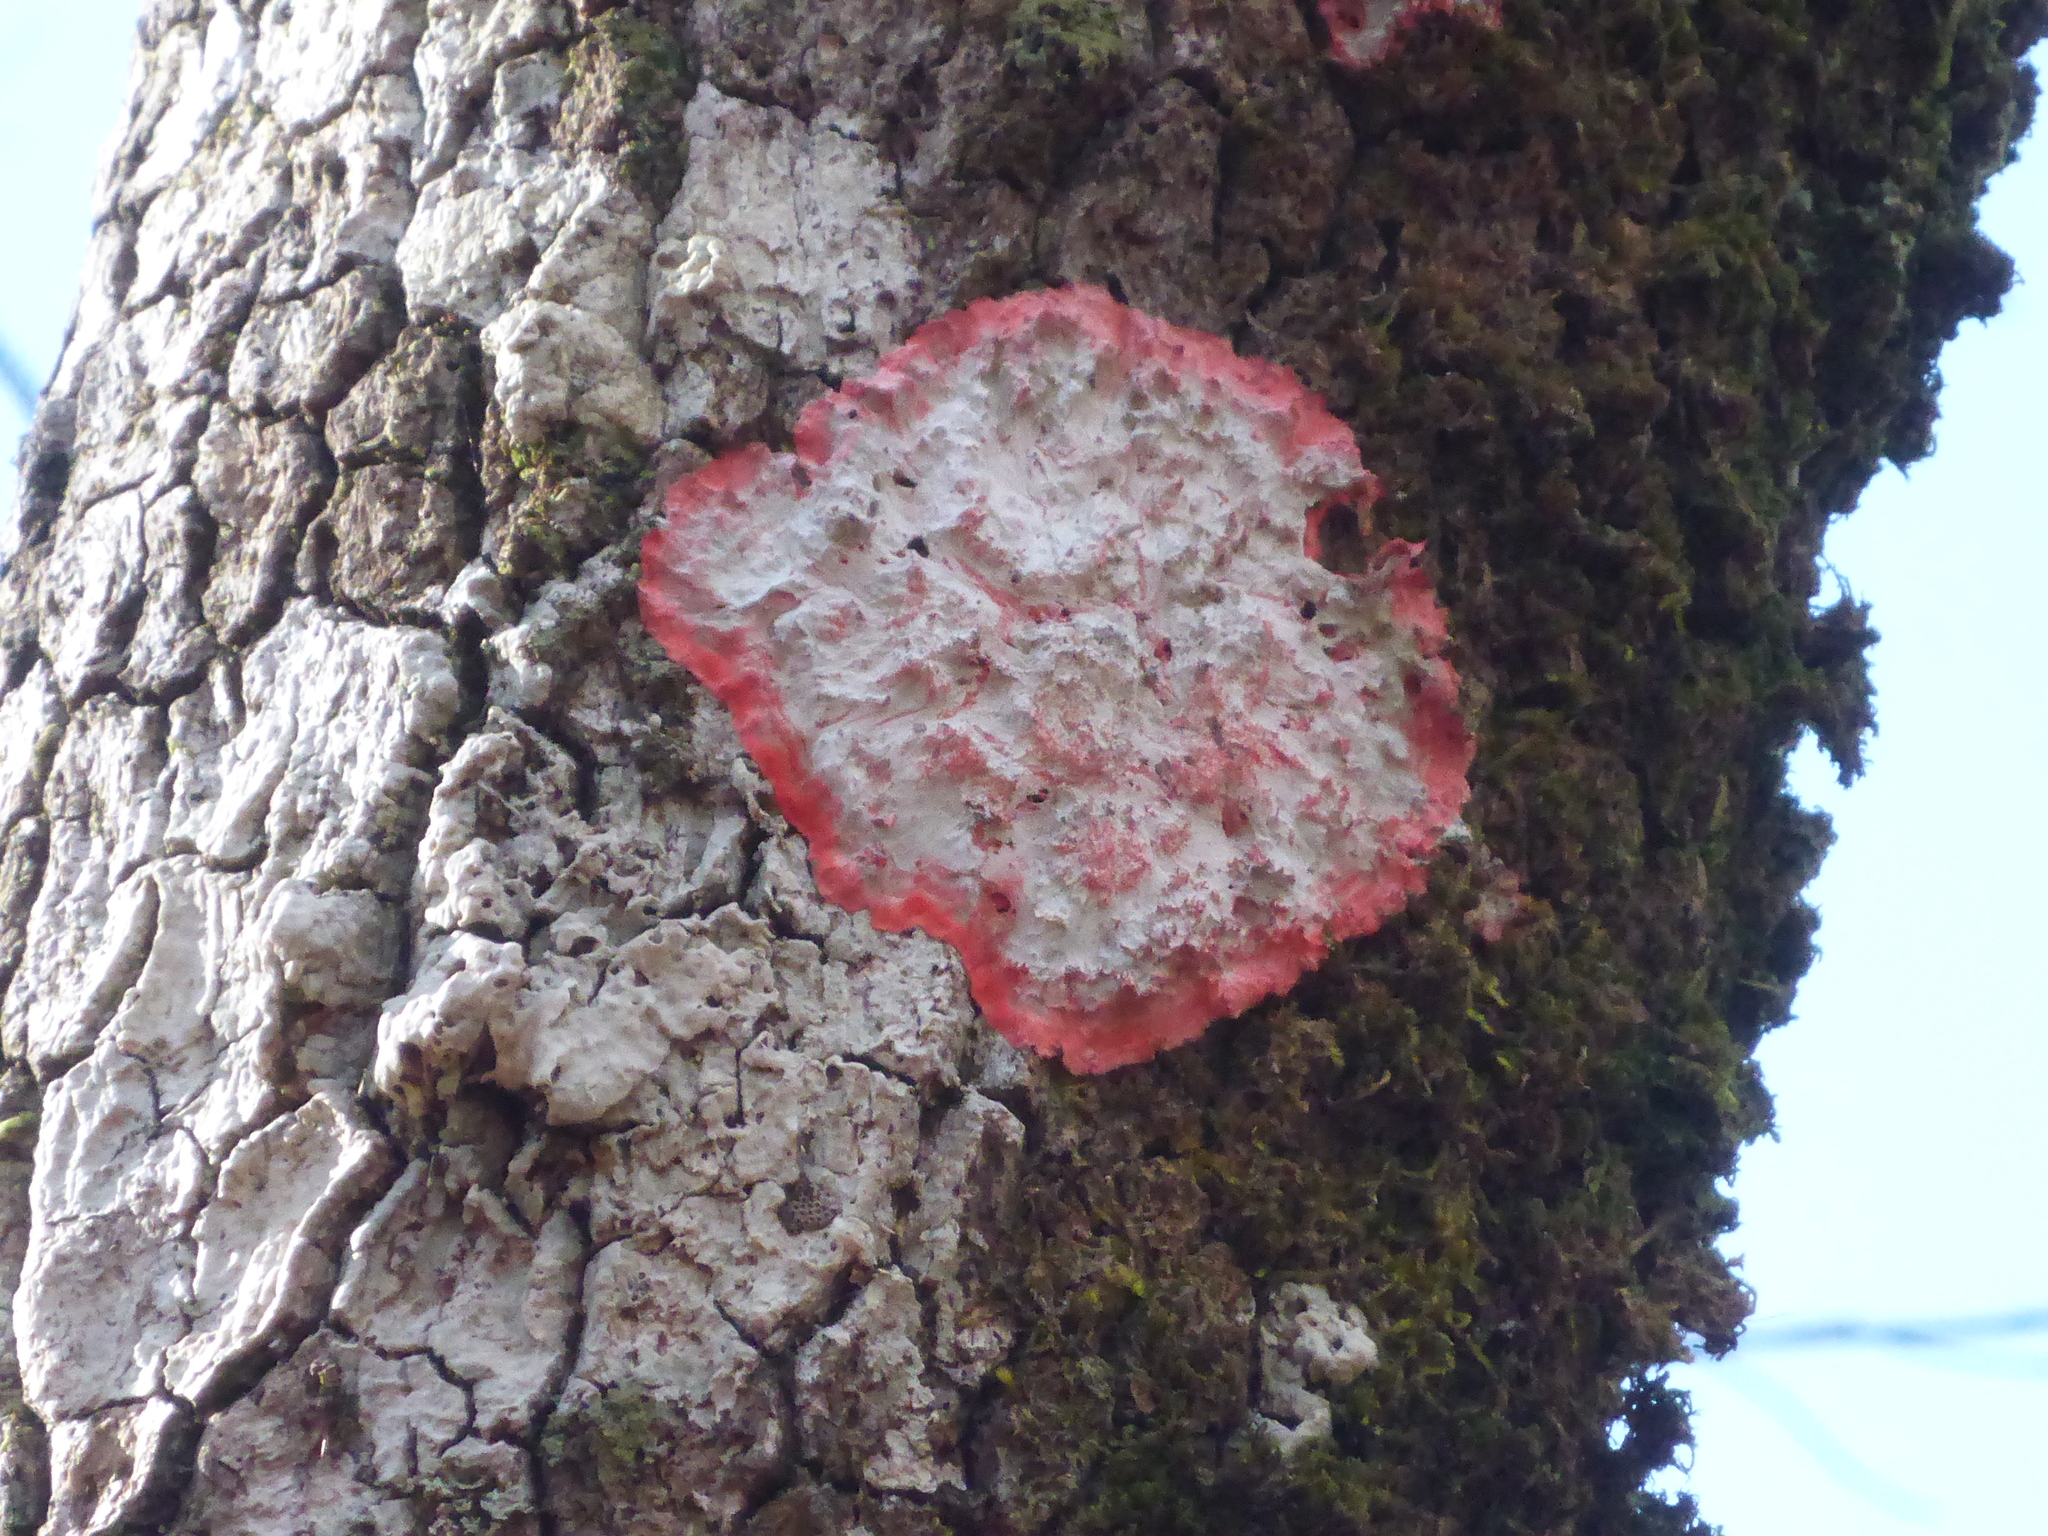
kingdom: Fungi
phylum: Ascomycota
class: Arthoniomycetes
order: Arthoniales
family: Arthoniaceae
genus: Herpothallon
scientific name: Herpothallon rubrocinctum
